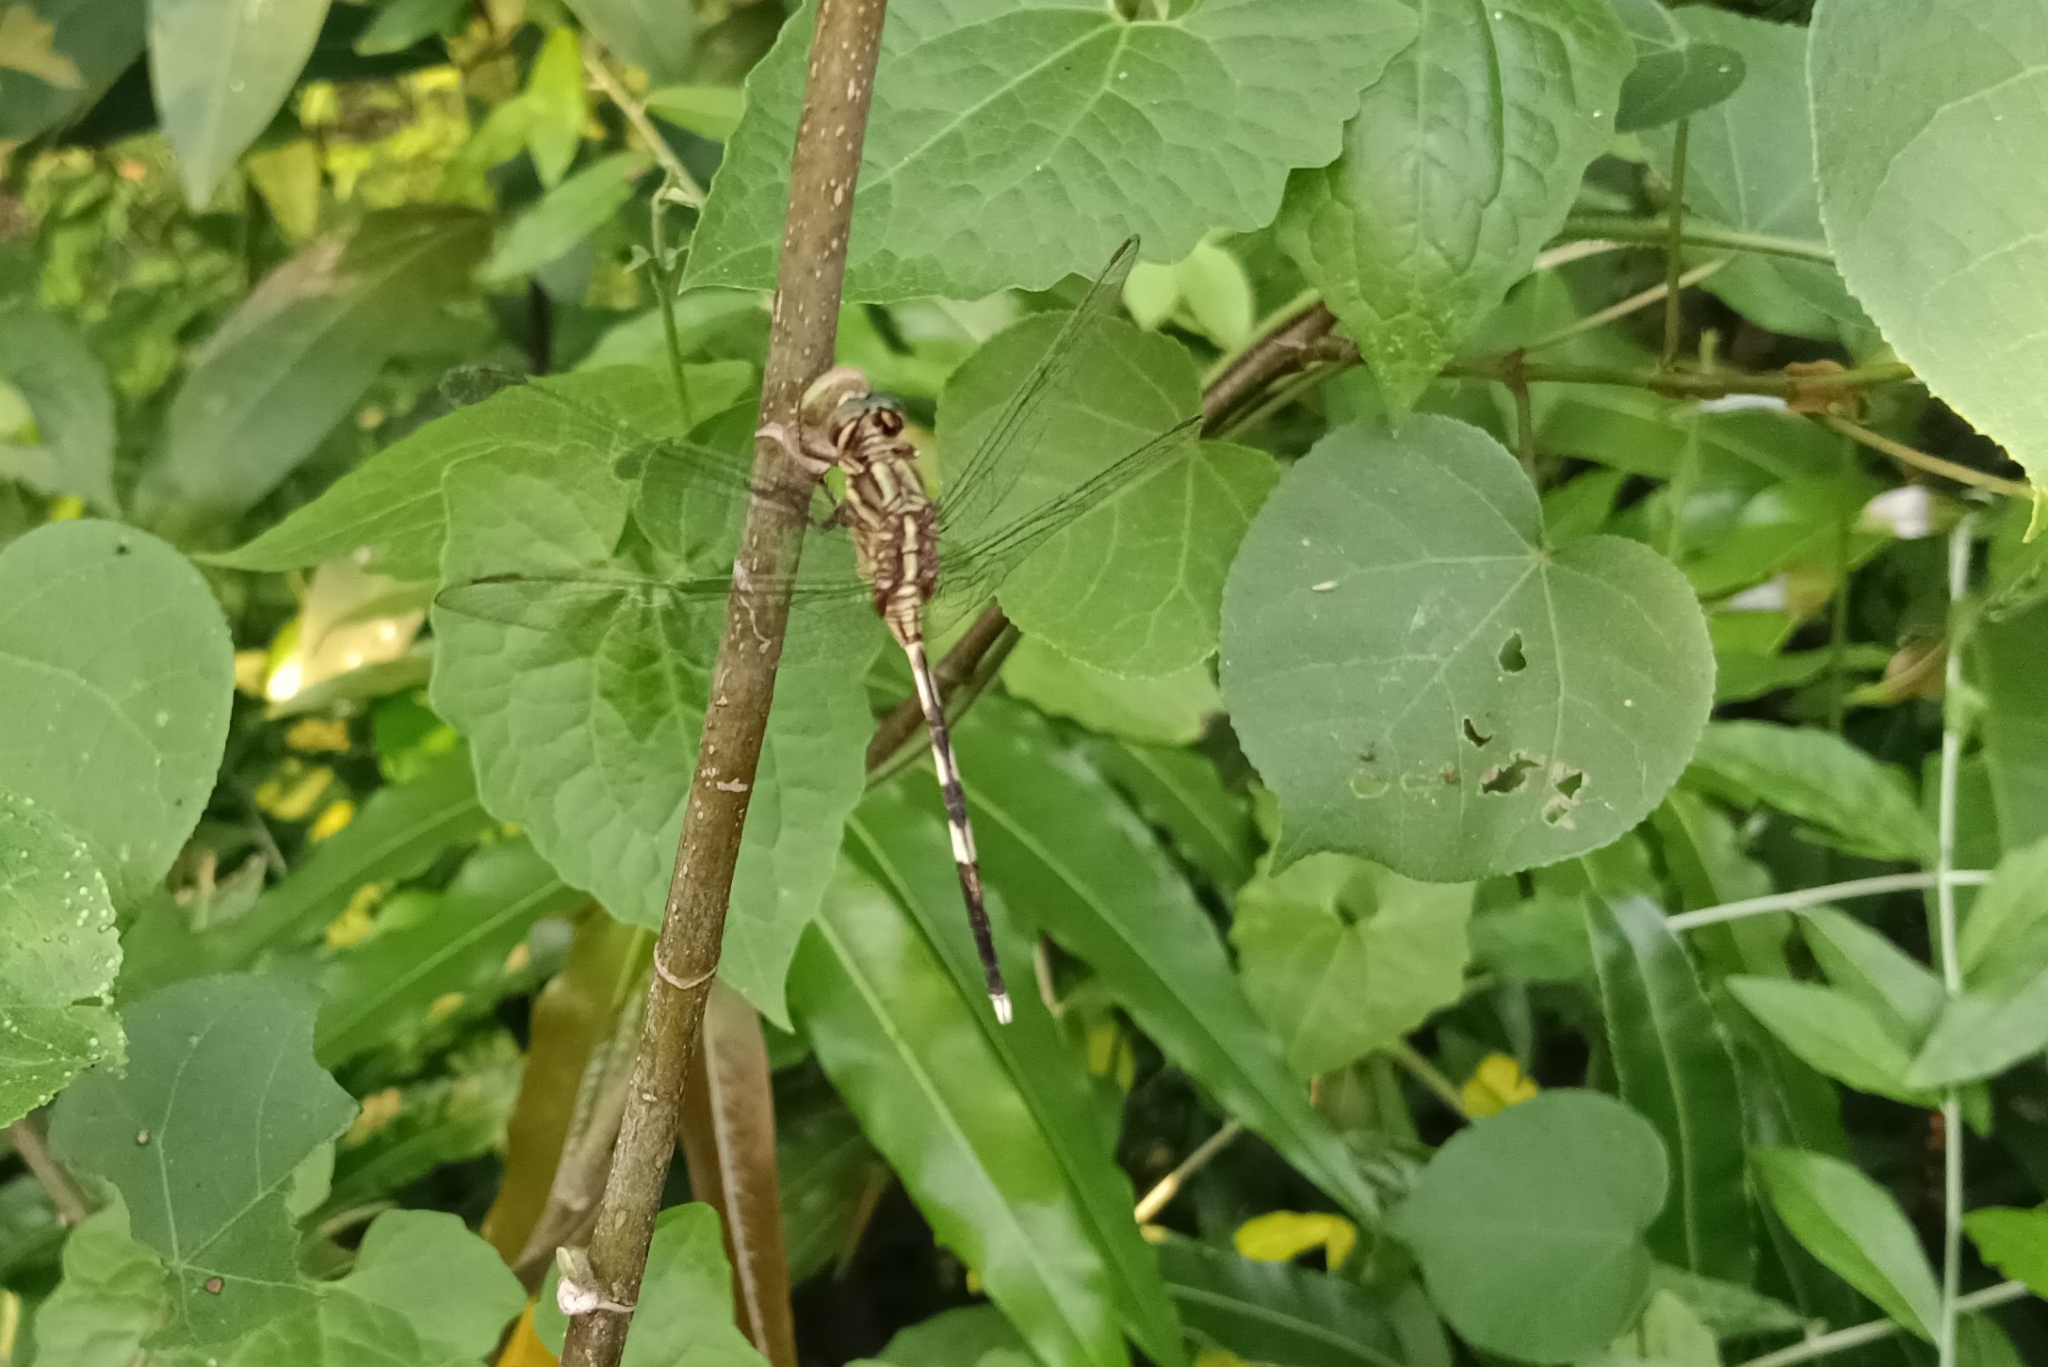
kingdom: Animalia
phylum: Arthropoda
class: Insecta
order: Odonata
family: Libellulidae
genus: Orthetrum
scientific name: Orthetrum sabina
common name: Slender skimmer
